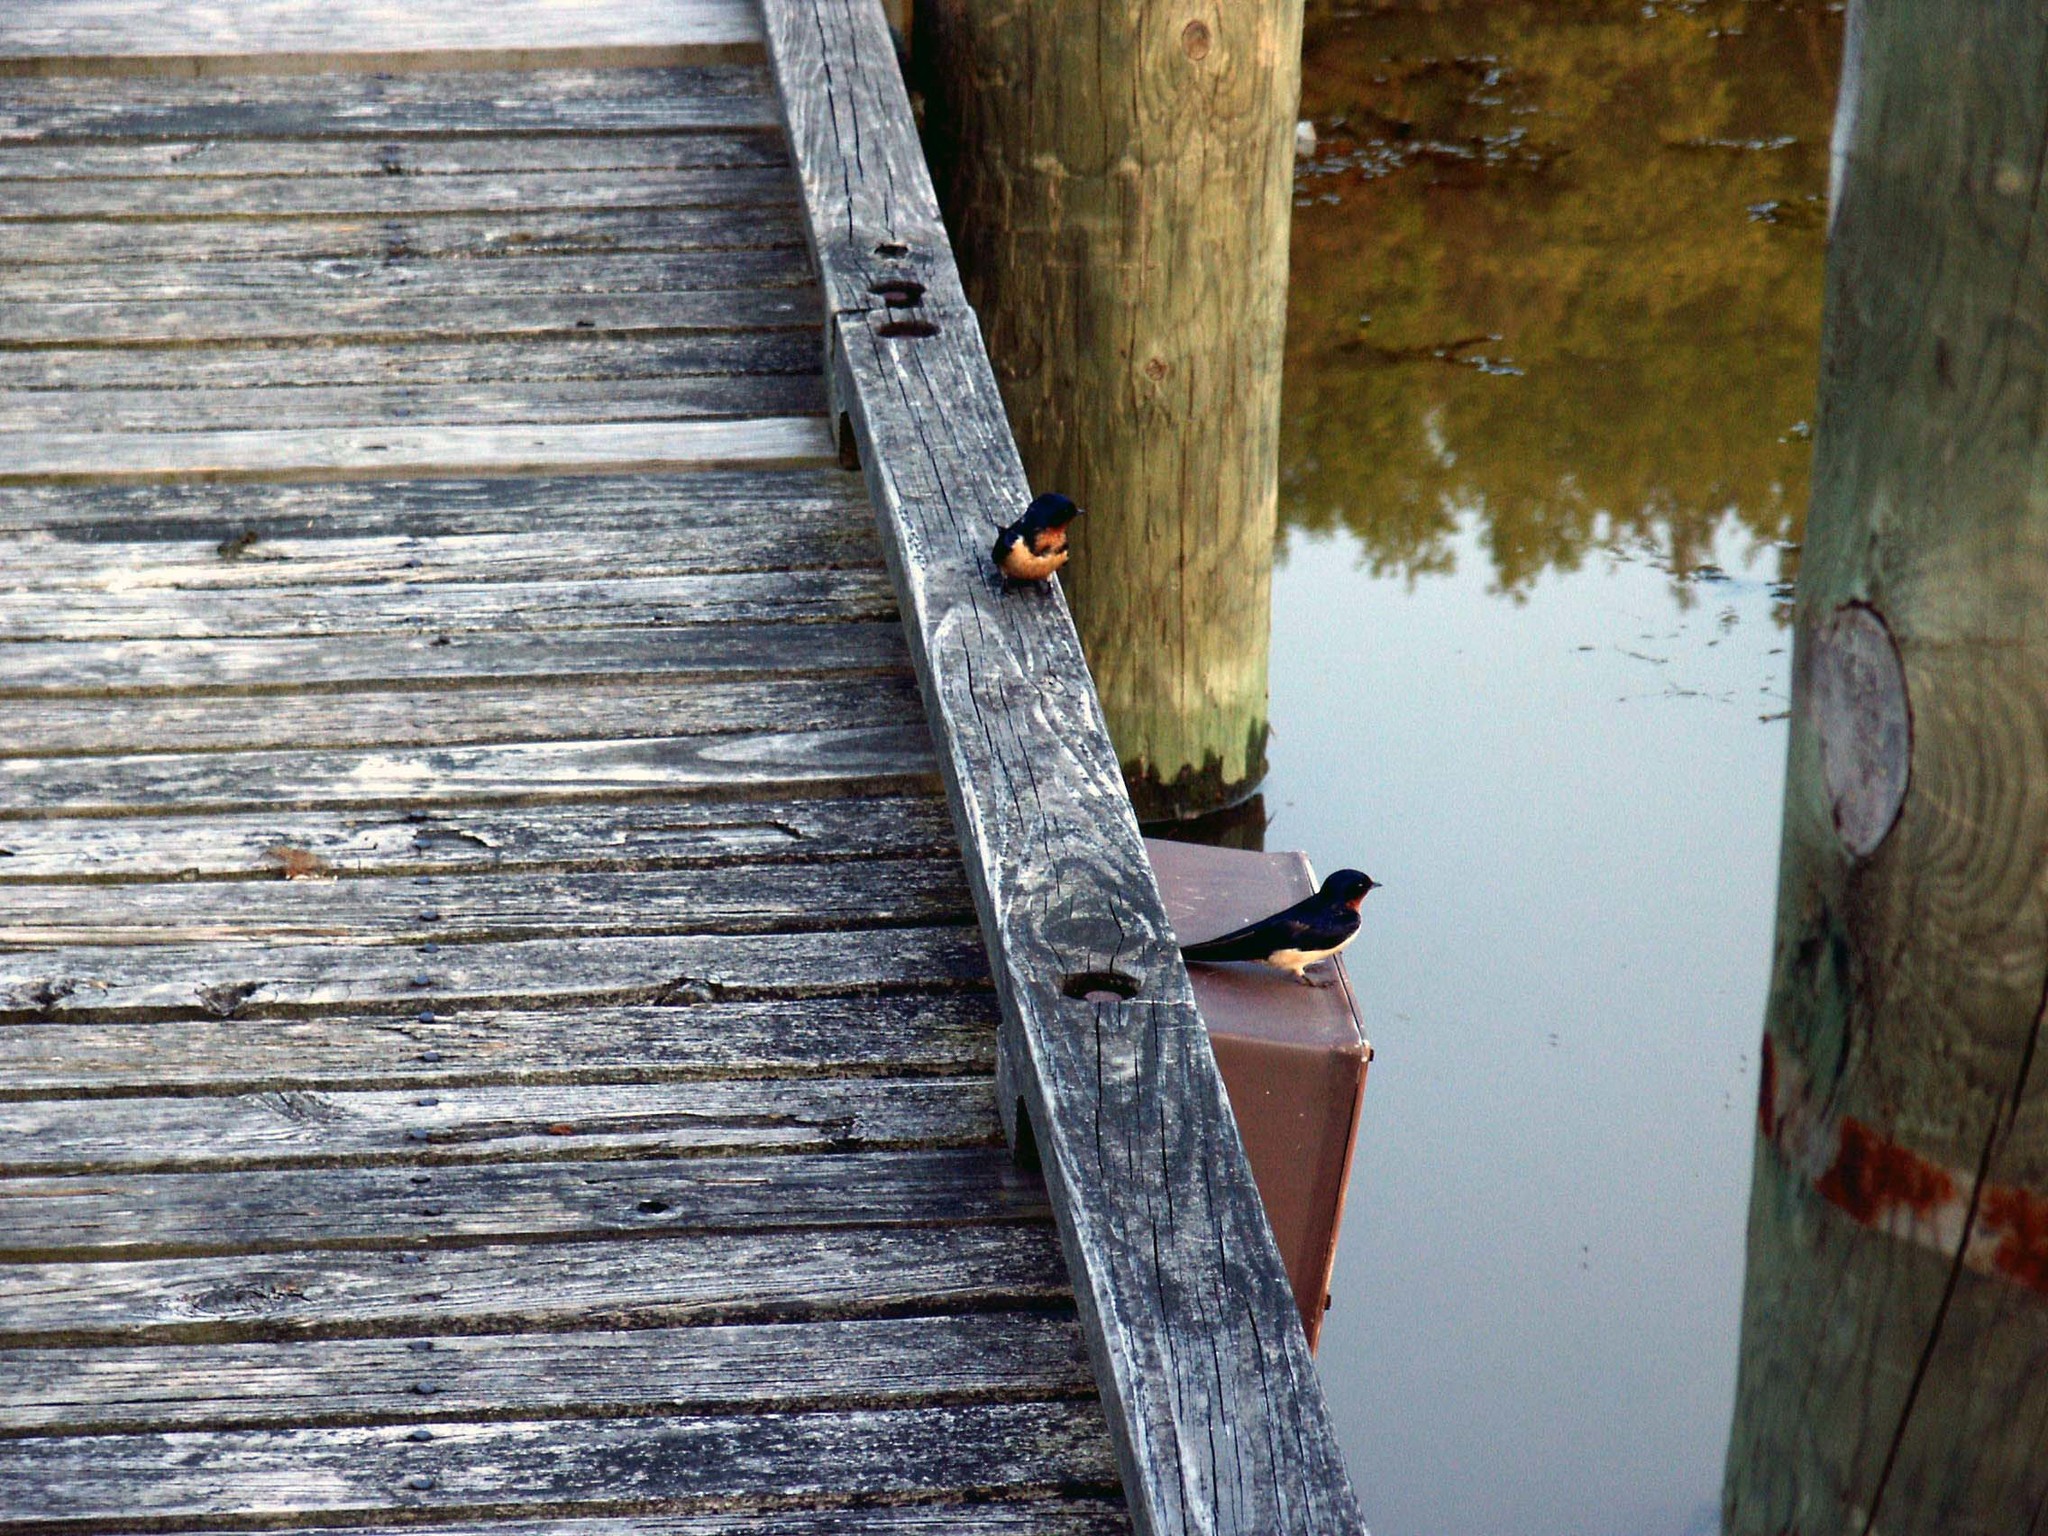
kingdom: Animalia
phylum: Chordata
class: Aves
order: Passeriformes
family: Hirundinidae
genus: Hirundo
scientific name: Hirundo rustica
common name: Barn swallow
